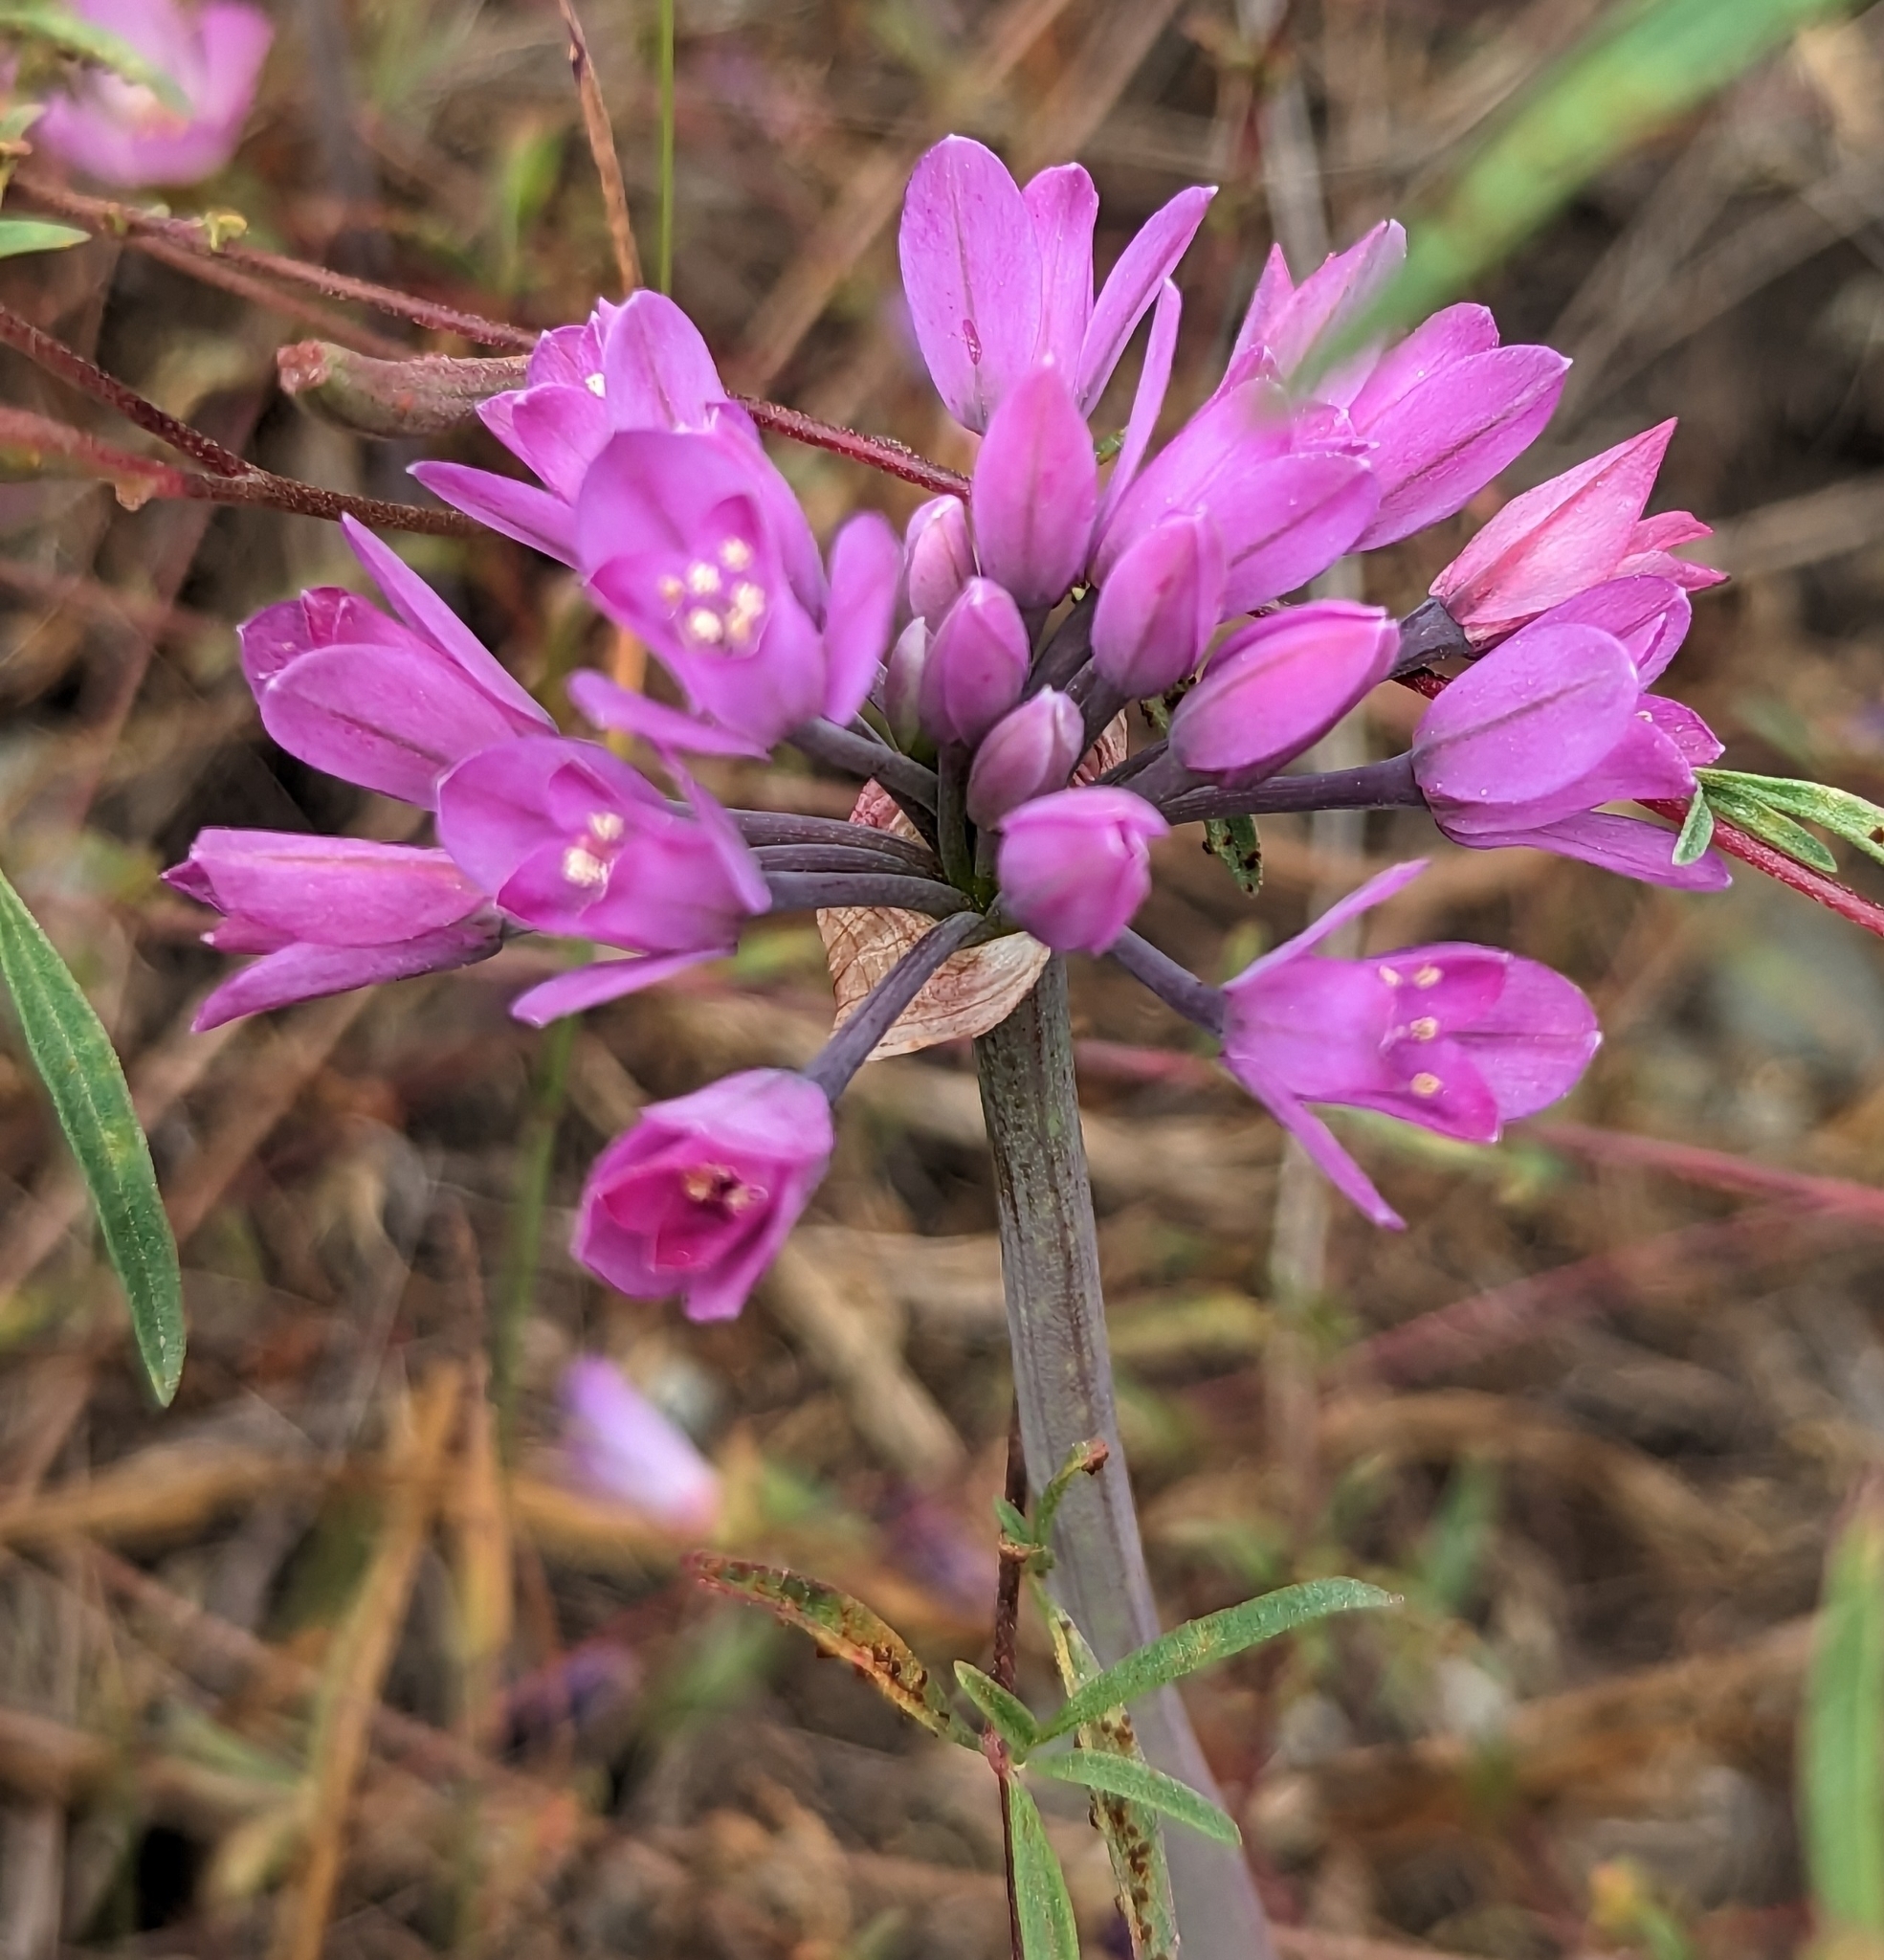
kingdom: Plantae
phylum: Tracheophyta
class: Liliopsida
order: Asparagales
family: Amaryllidaceae
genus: Allium
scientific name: Allium dichlamydeum
